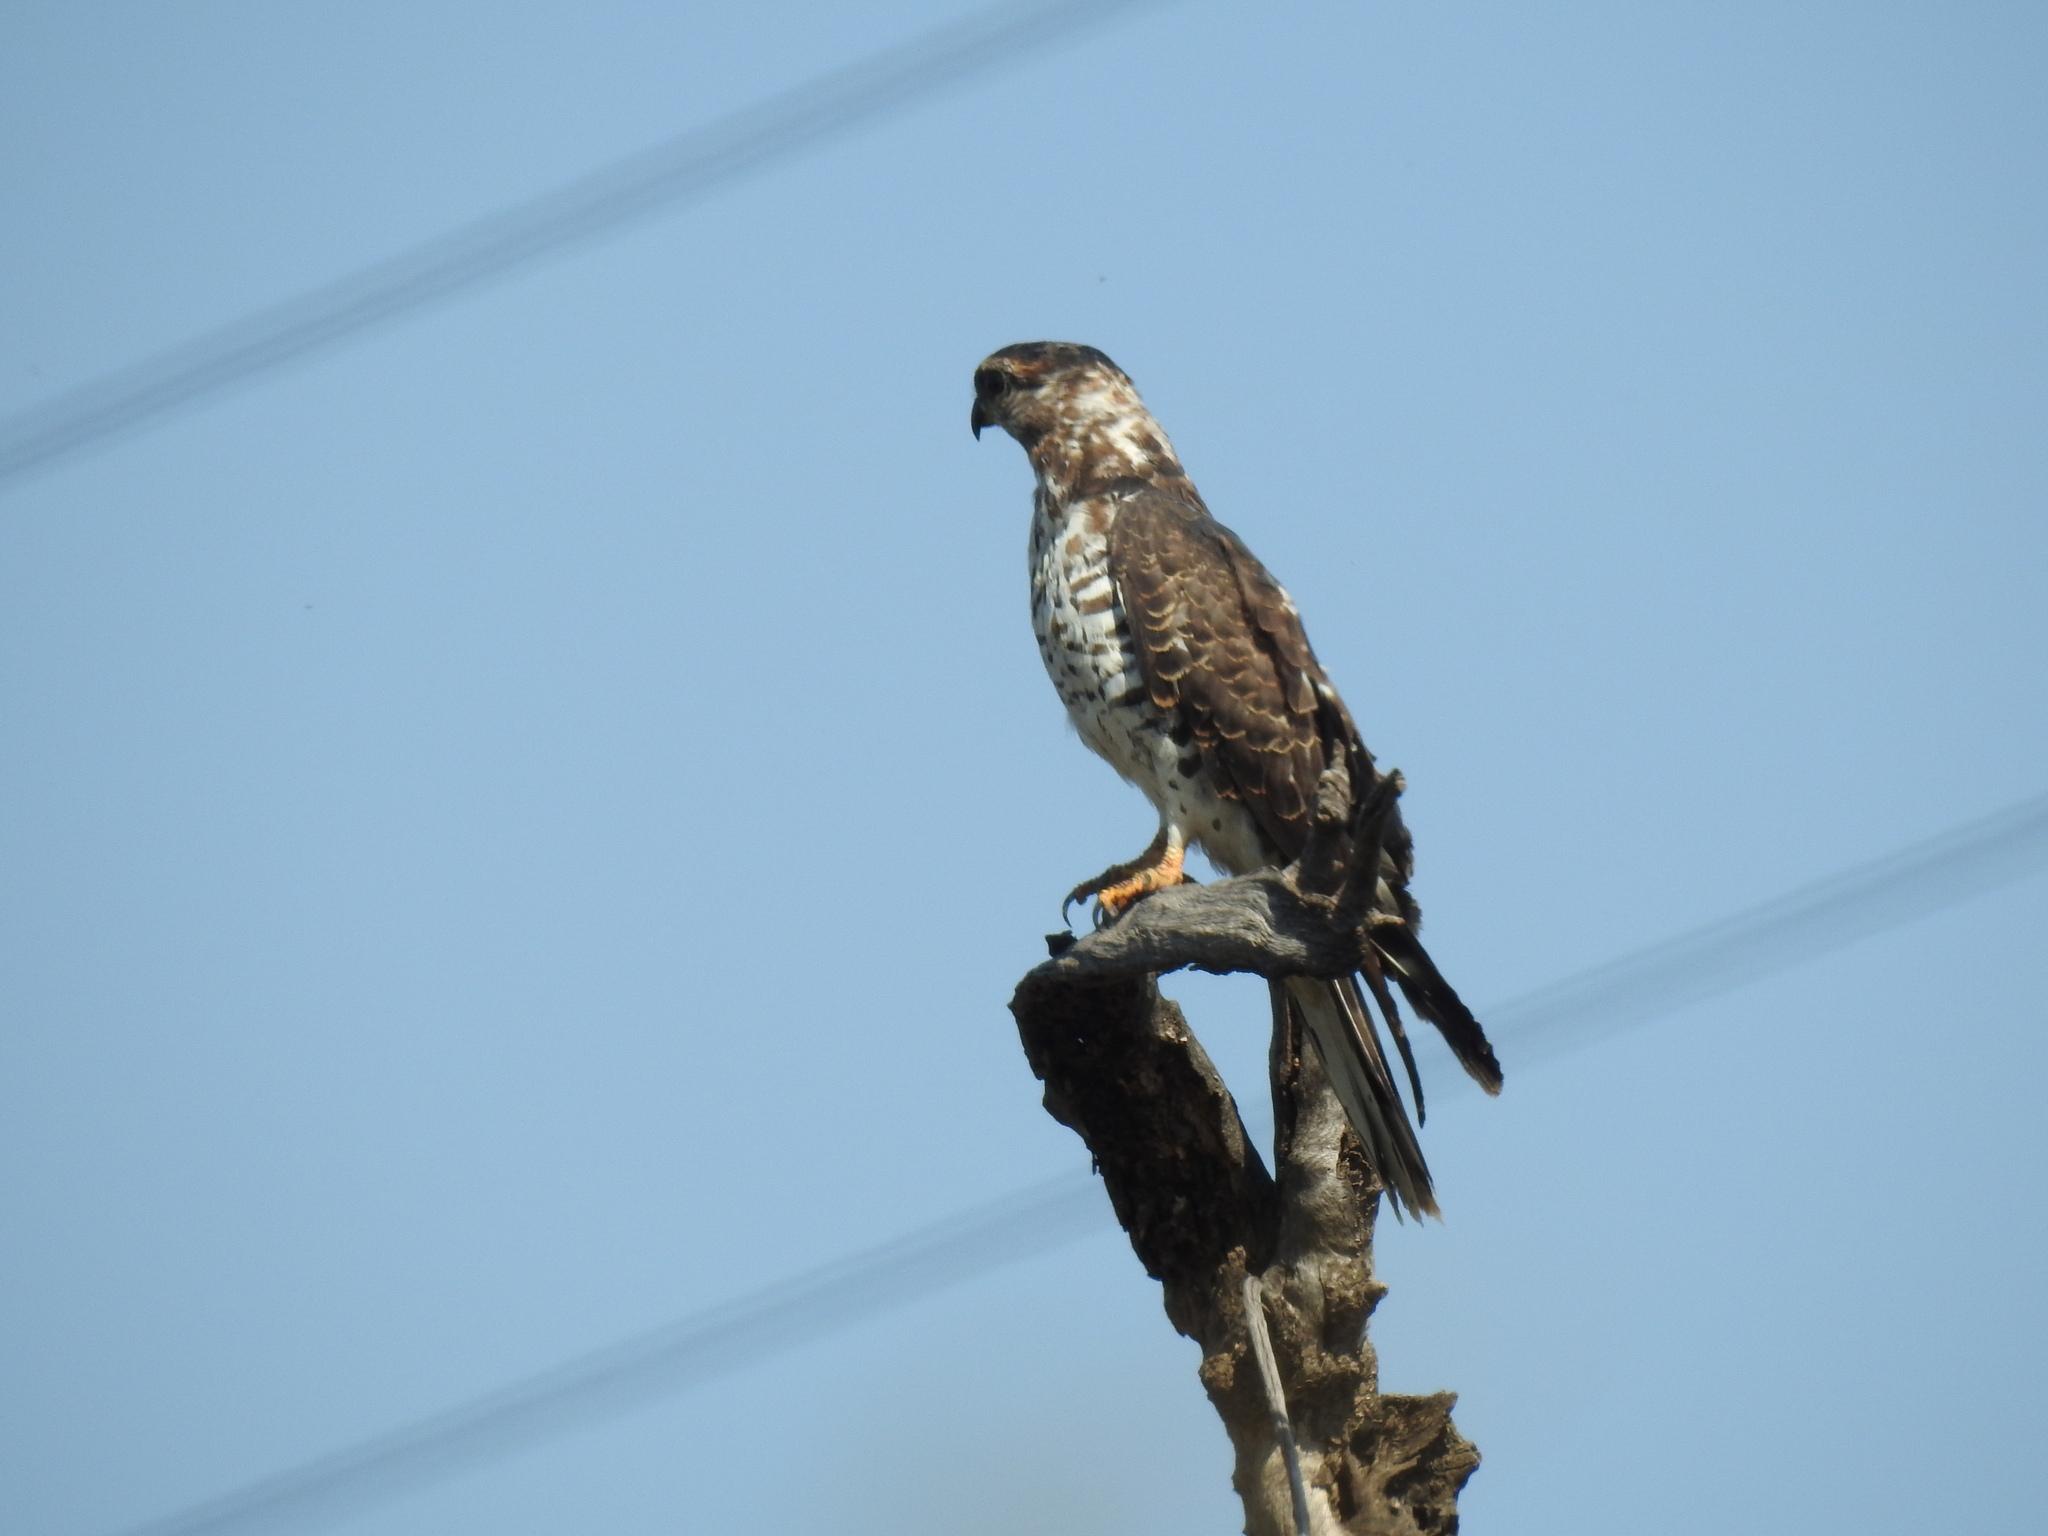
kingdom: Animalia
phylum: Chordata
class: Aves
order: Accipitriformes
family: Accipitridae
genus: Aviceda
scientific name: Aviceda cuculoides
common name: African cuckoo-hawk
